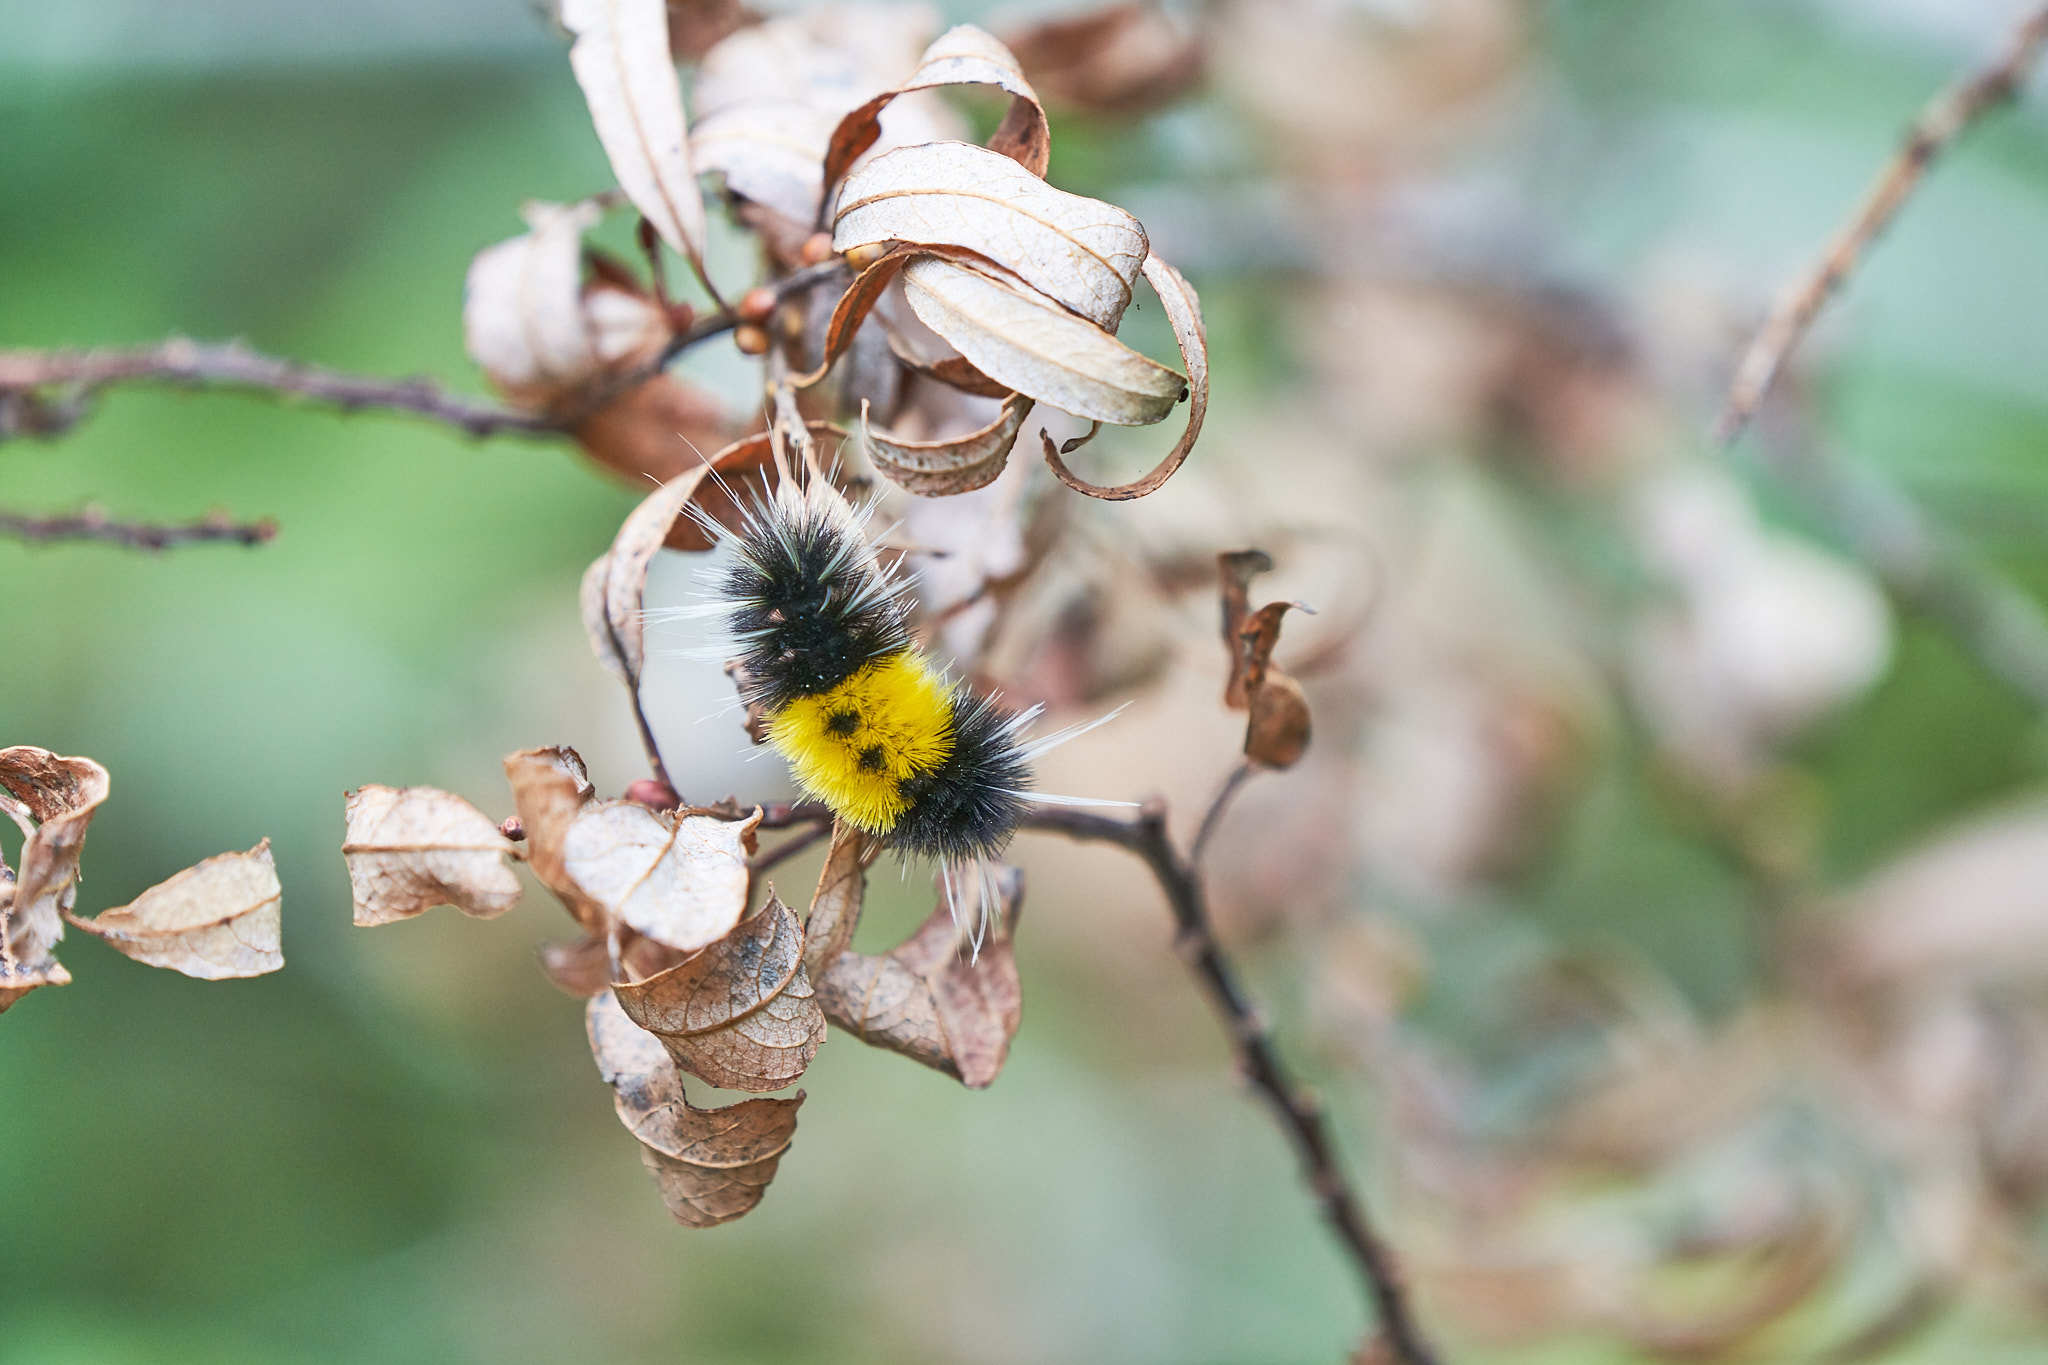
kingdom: Animalia
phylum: Arthropoda
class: Insecta
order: Lepidoptera
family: Erebidae
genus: Lophocampa
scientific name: Lophocampa maculata
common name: Spotted tussock moth
